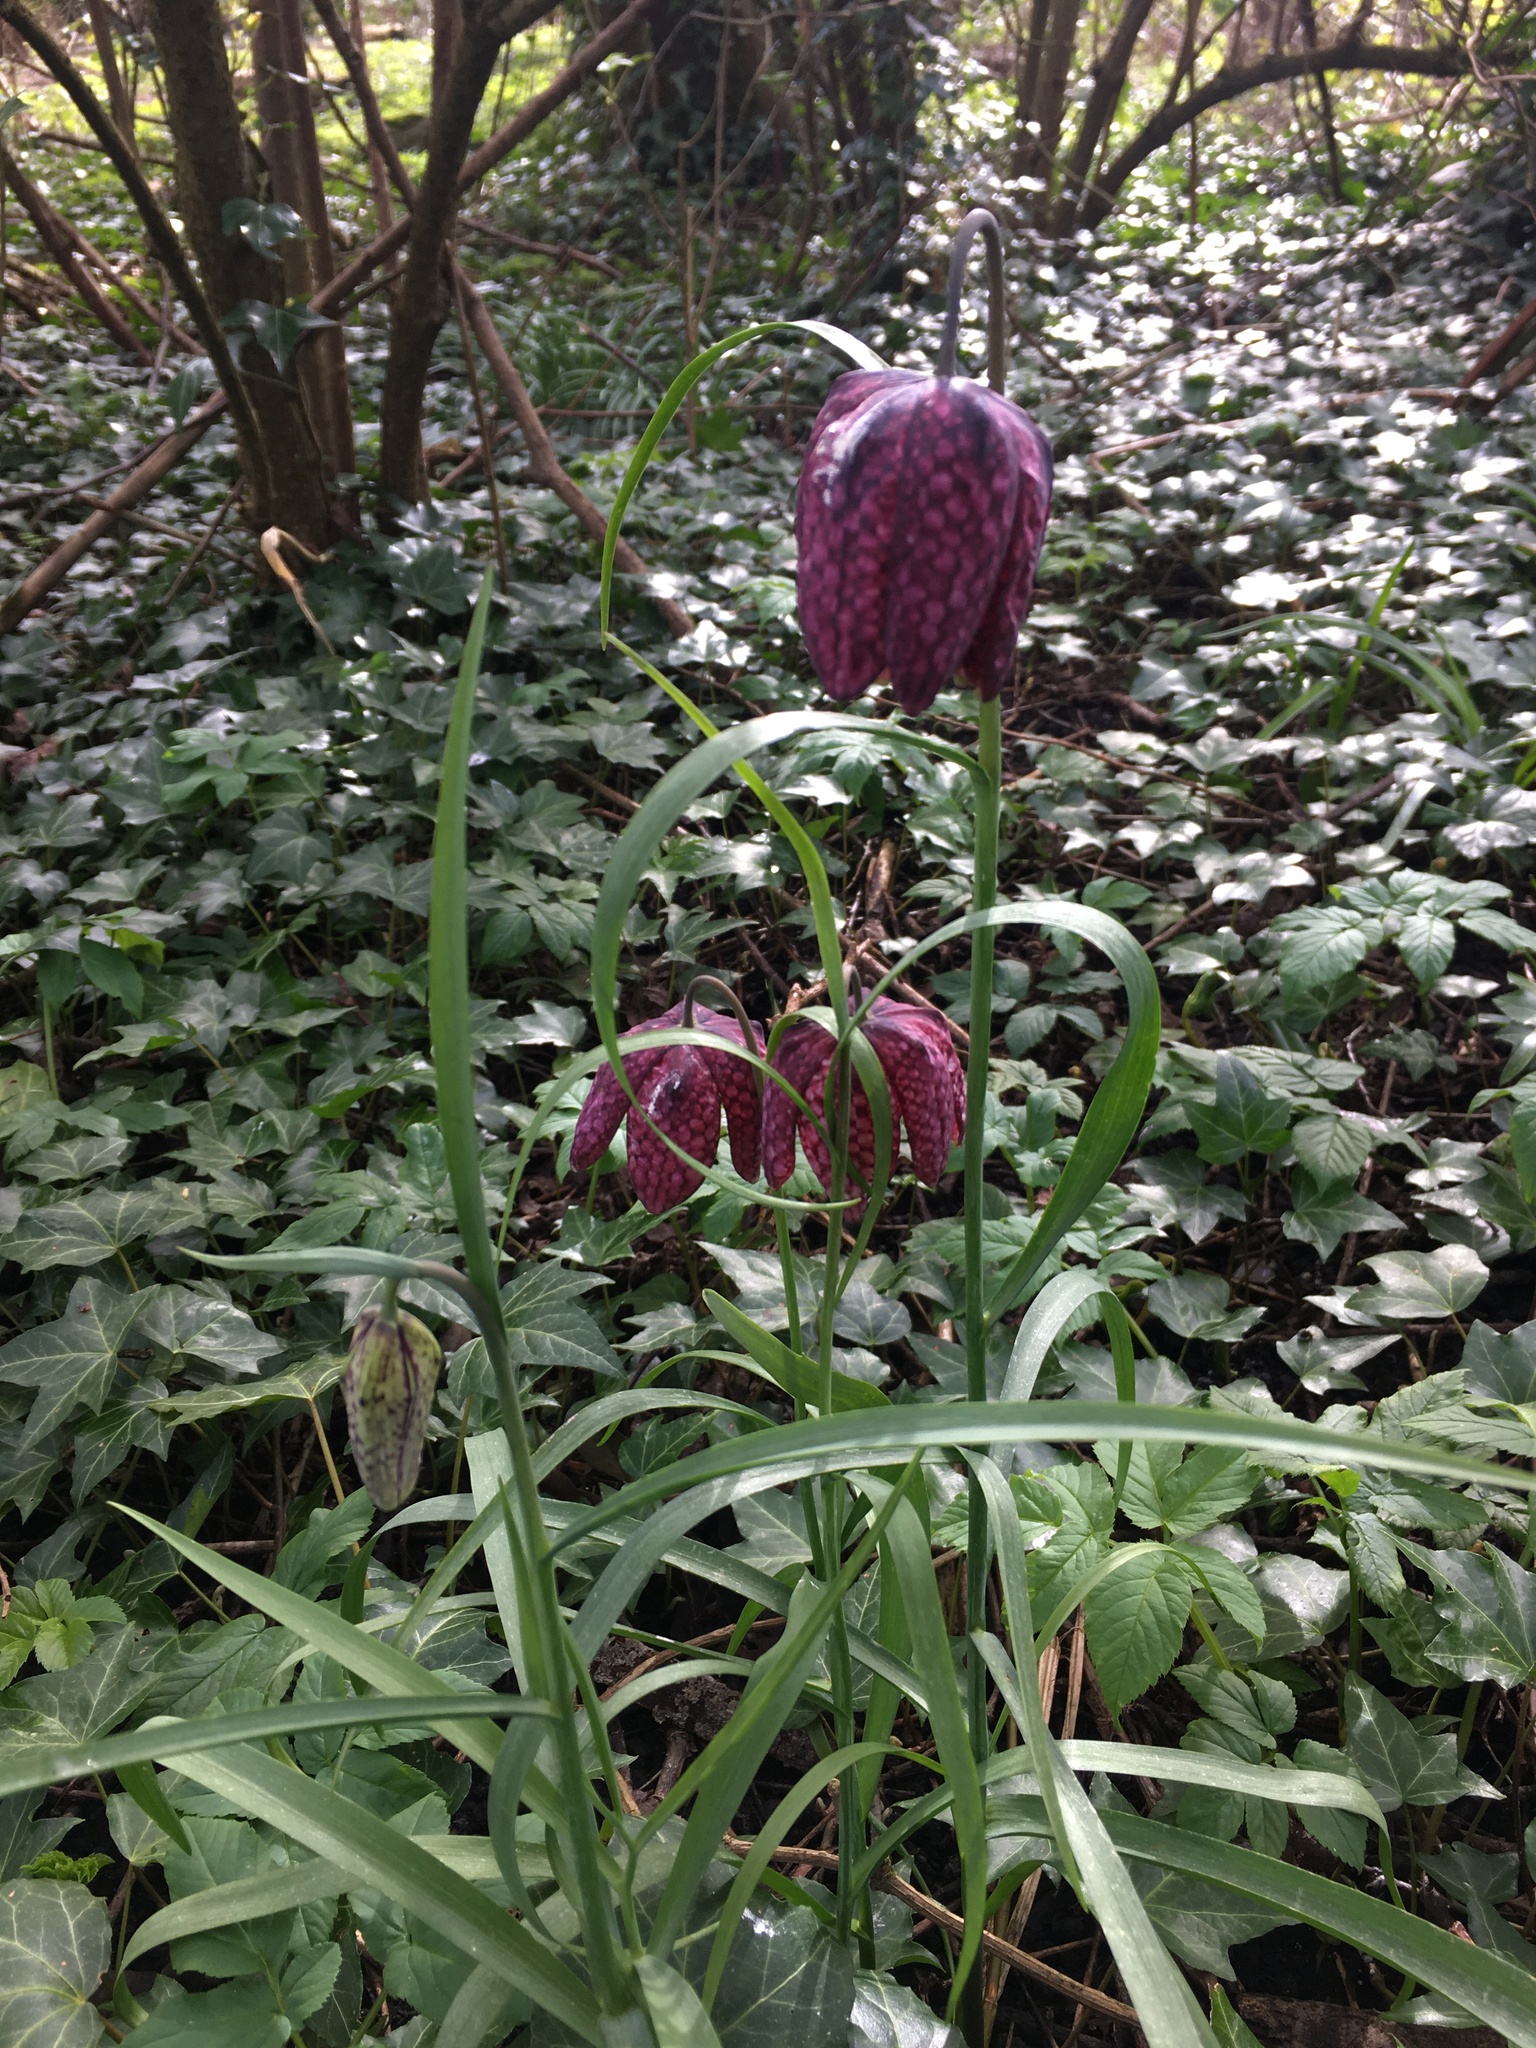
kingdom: Plantae
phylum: Tracheophyta
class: Liliopsida
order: Liliales
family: Liliaceae
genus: Fritillaria
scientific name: Fritillaria meleagris
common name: Fritillary
